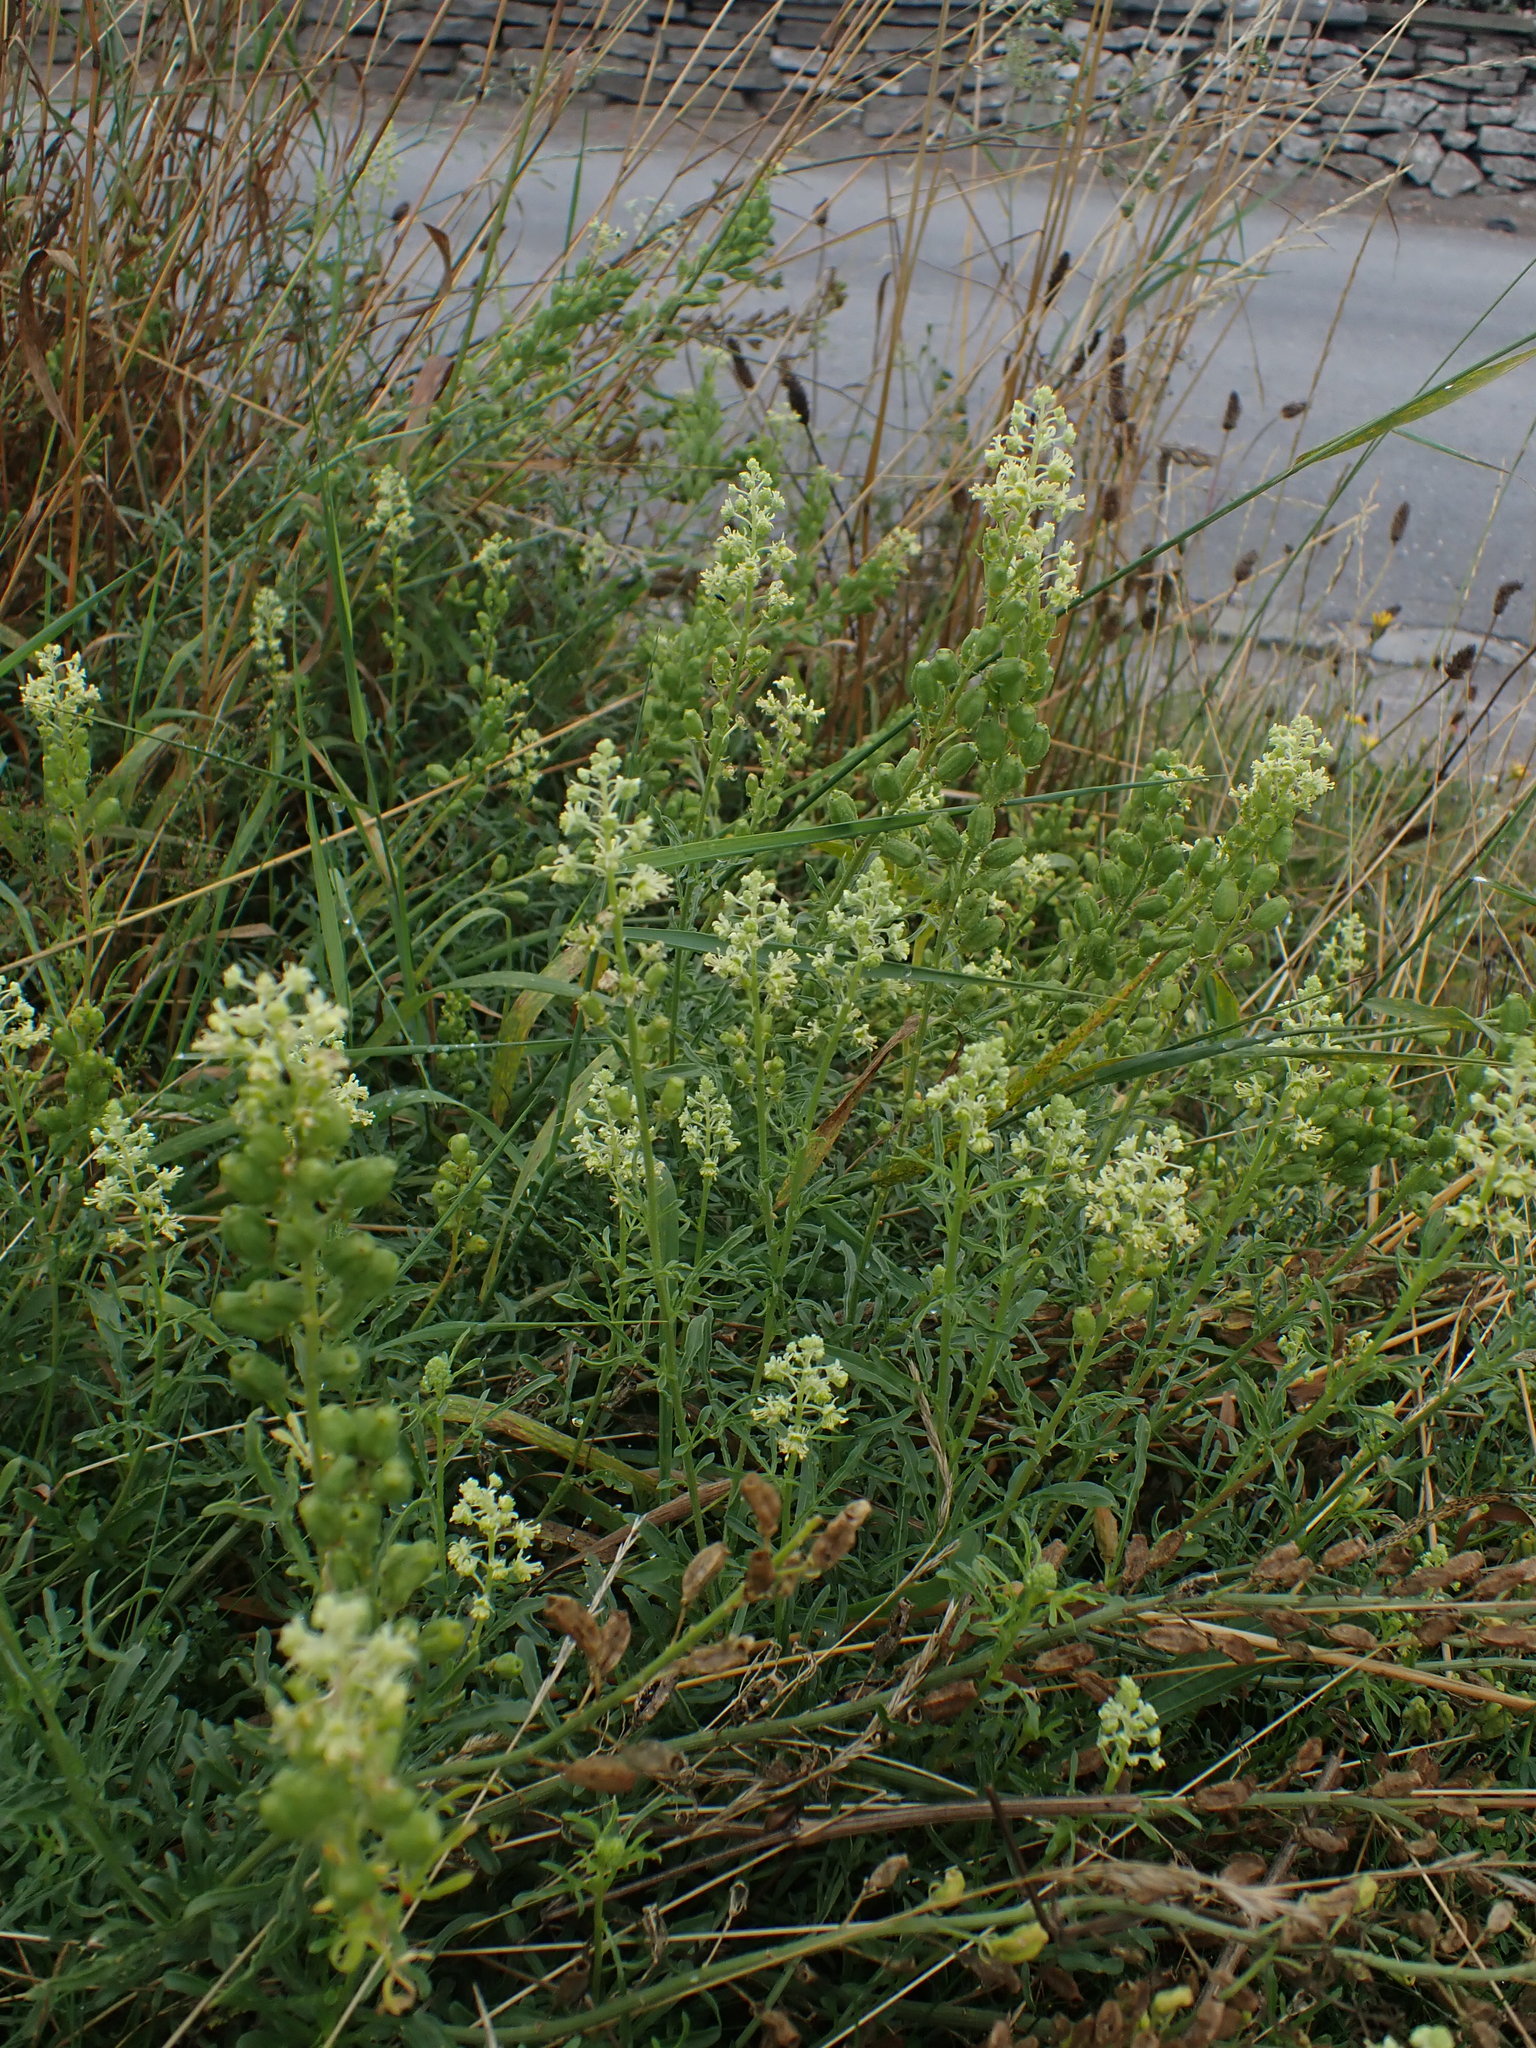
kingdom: Plantae
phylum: Tracheophyta
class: Magnoliopsida
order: Brassicales
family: Resedaceae
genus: Reseda
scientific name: Reseda lutea
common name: Wild mignonette
